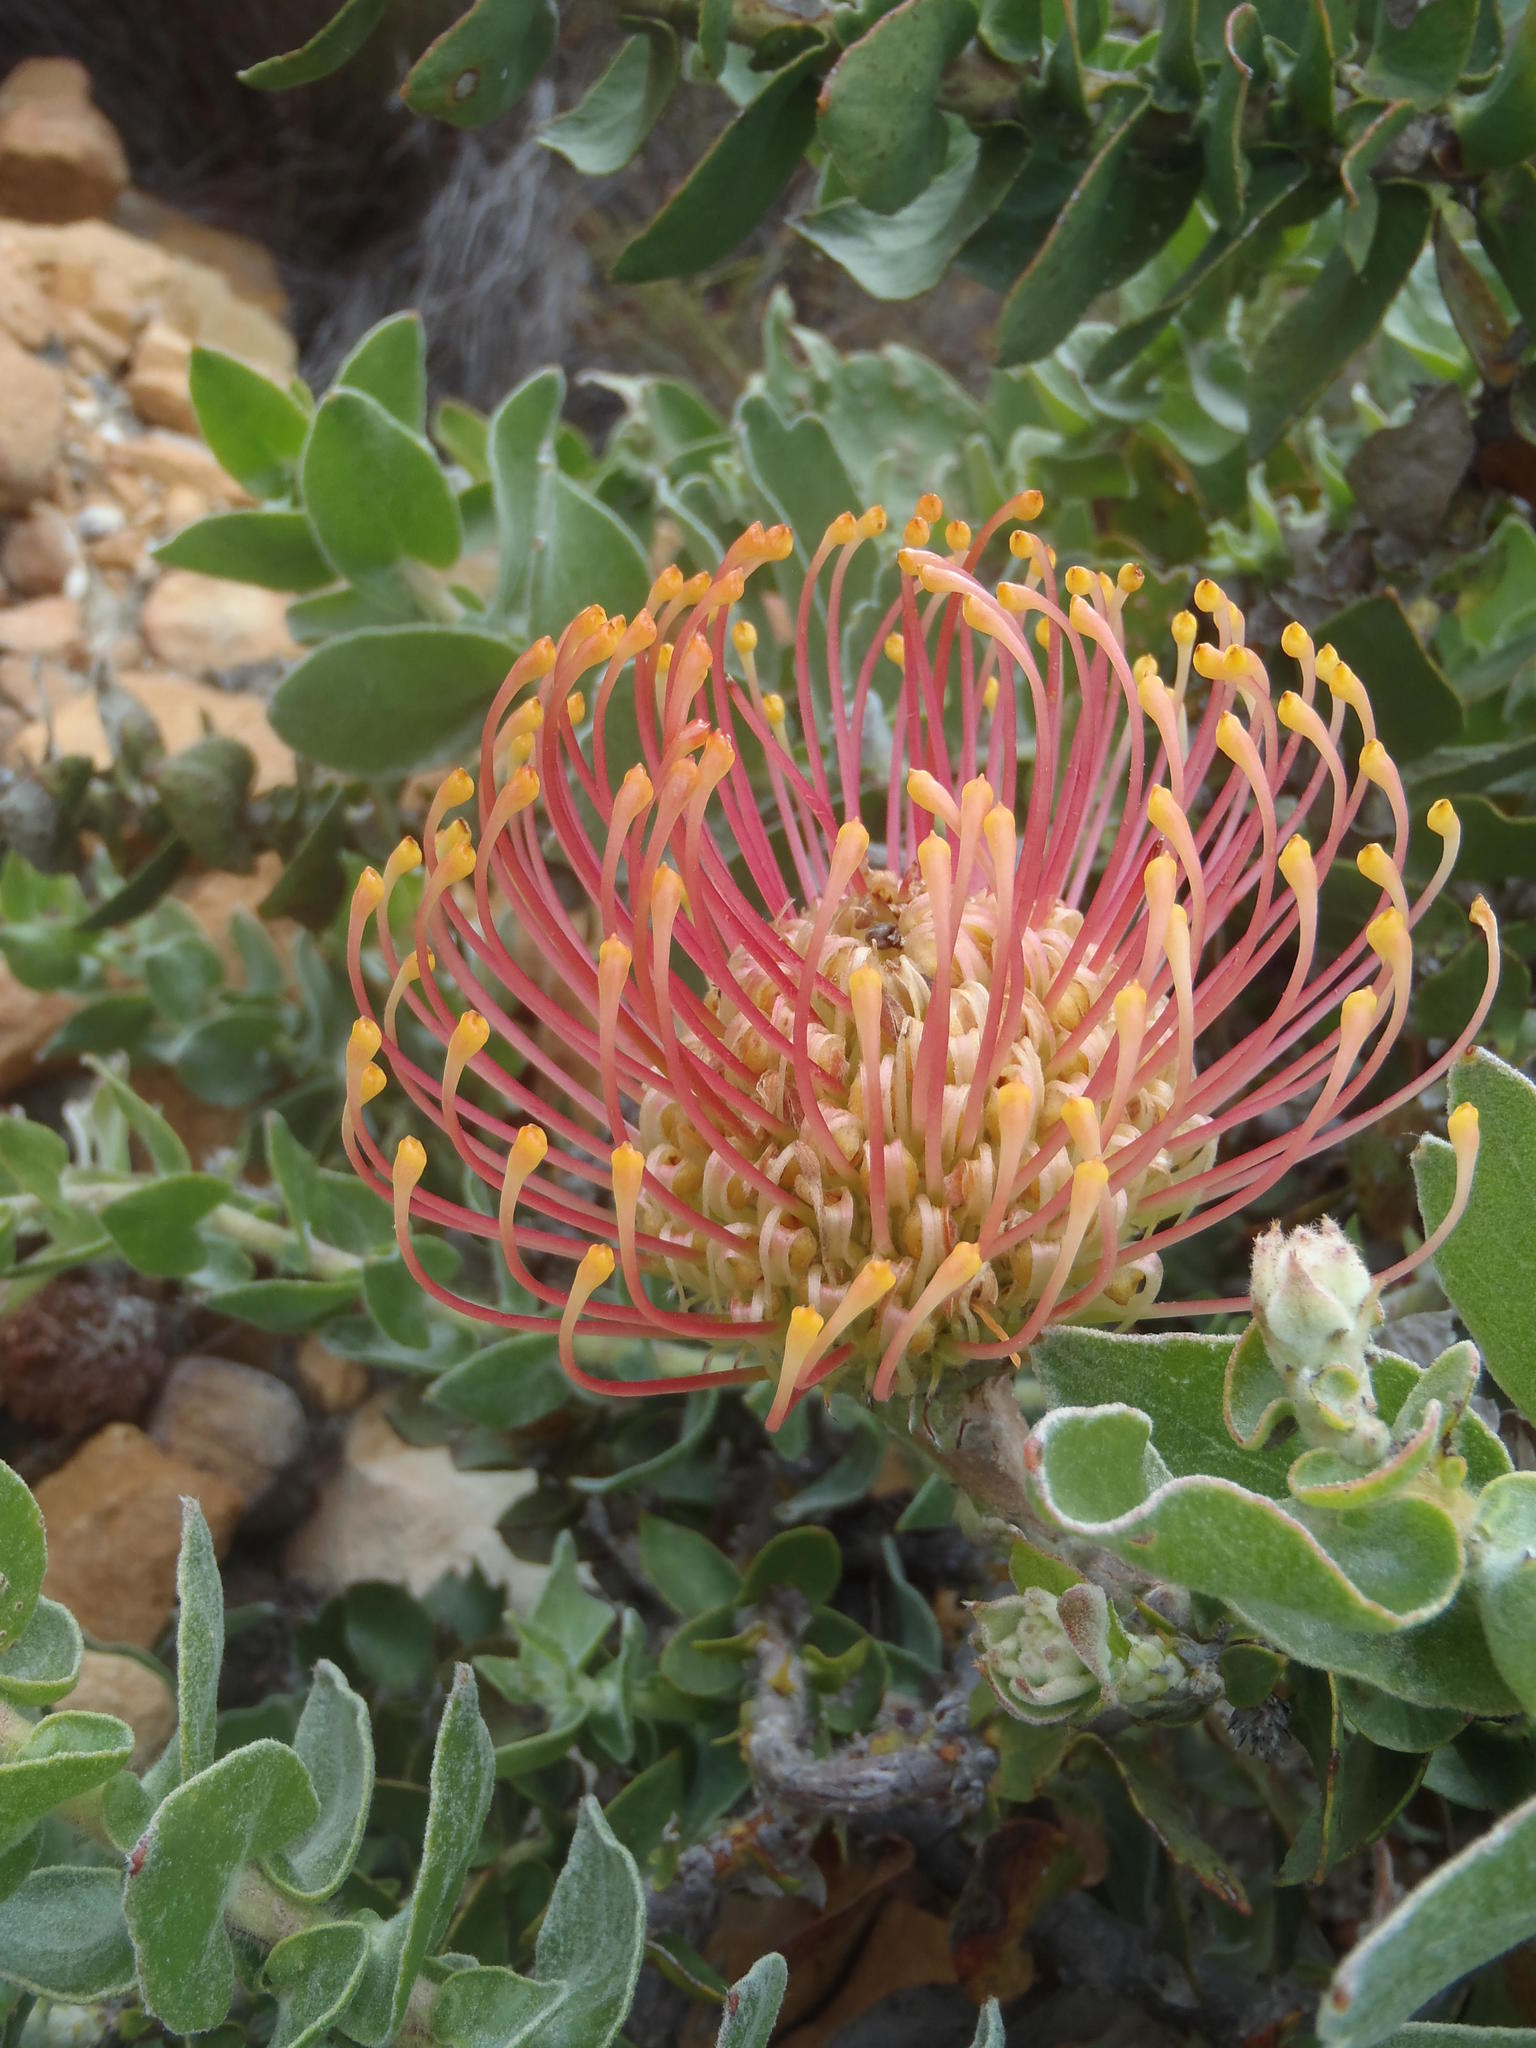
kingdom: Plantae
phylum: Tracheophyta
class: Magnoliopsida
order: Proteales
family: Proteaceae
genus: Leucospermum
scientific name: Leucospermum cordifolium
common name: Red pincushion-protea
